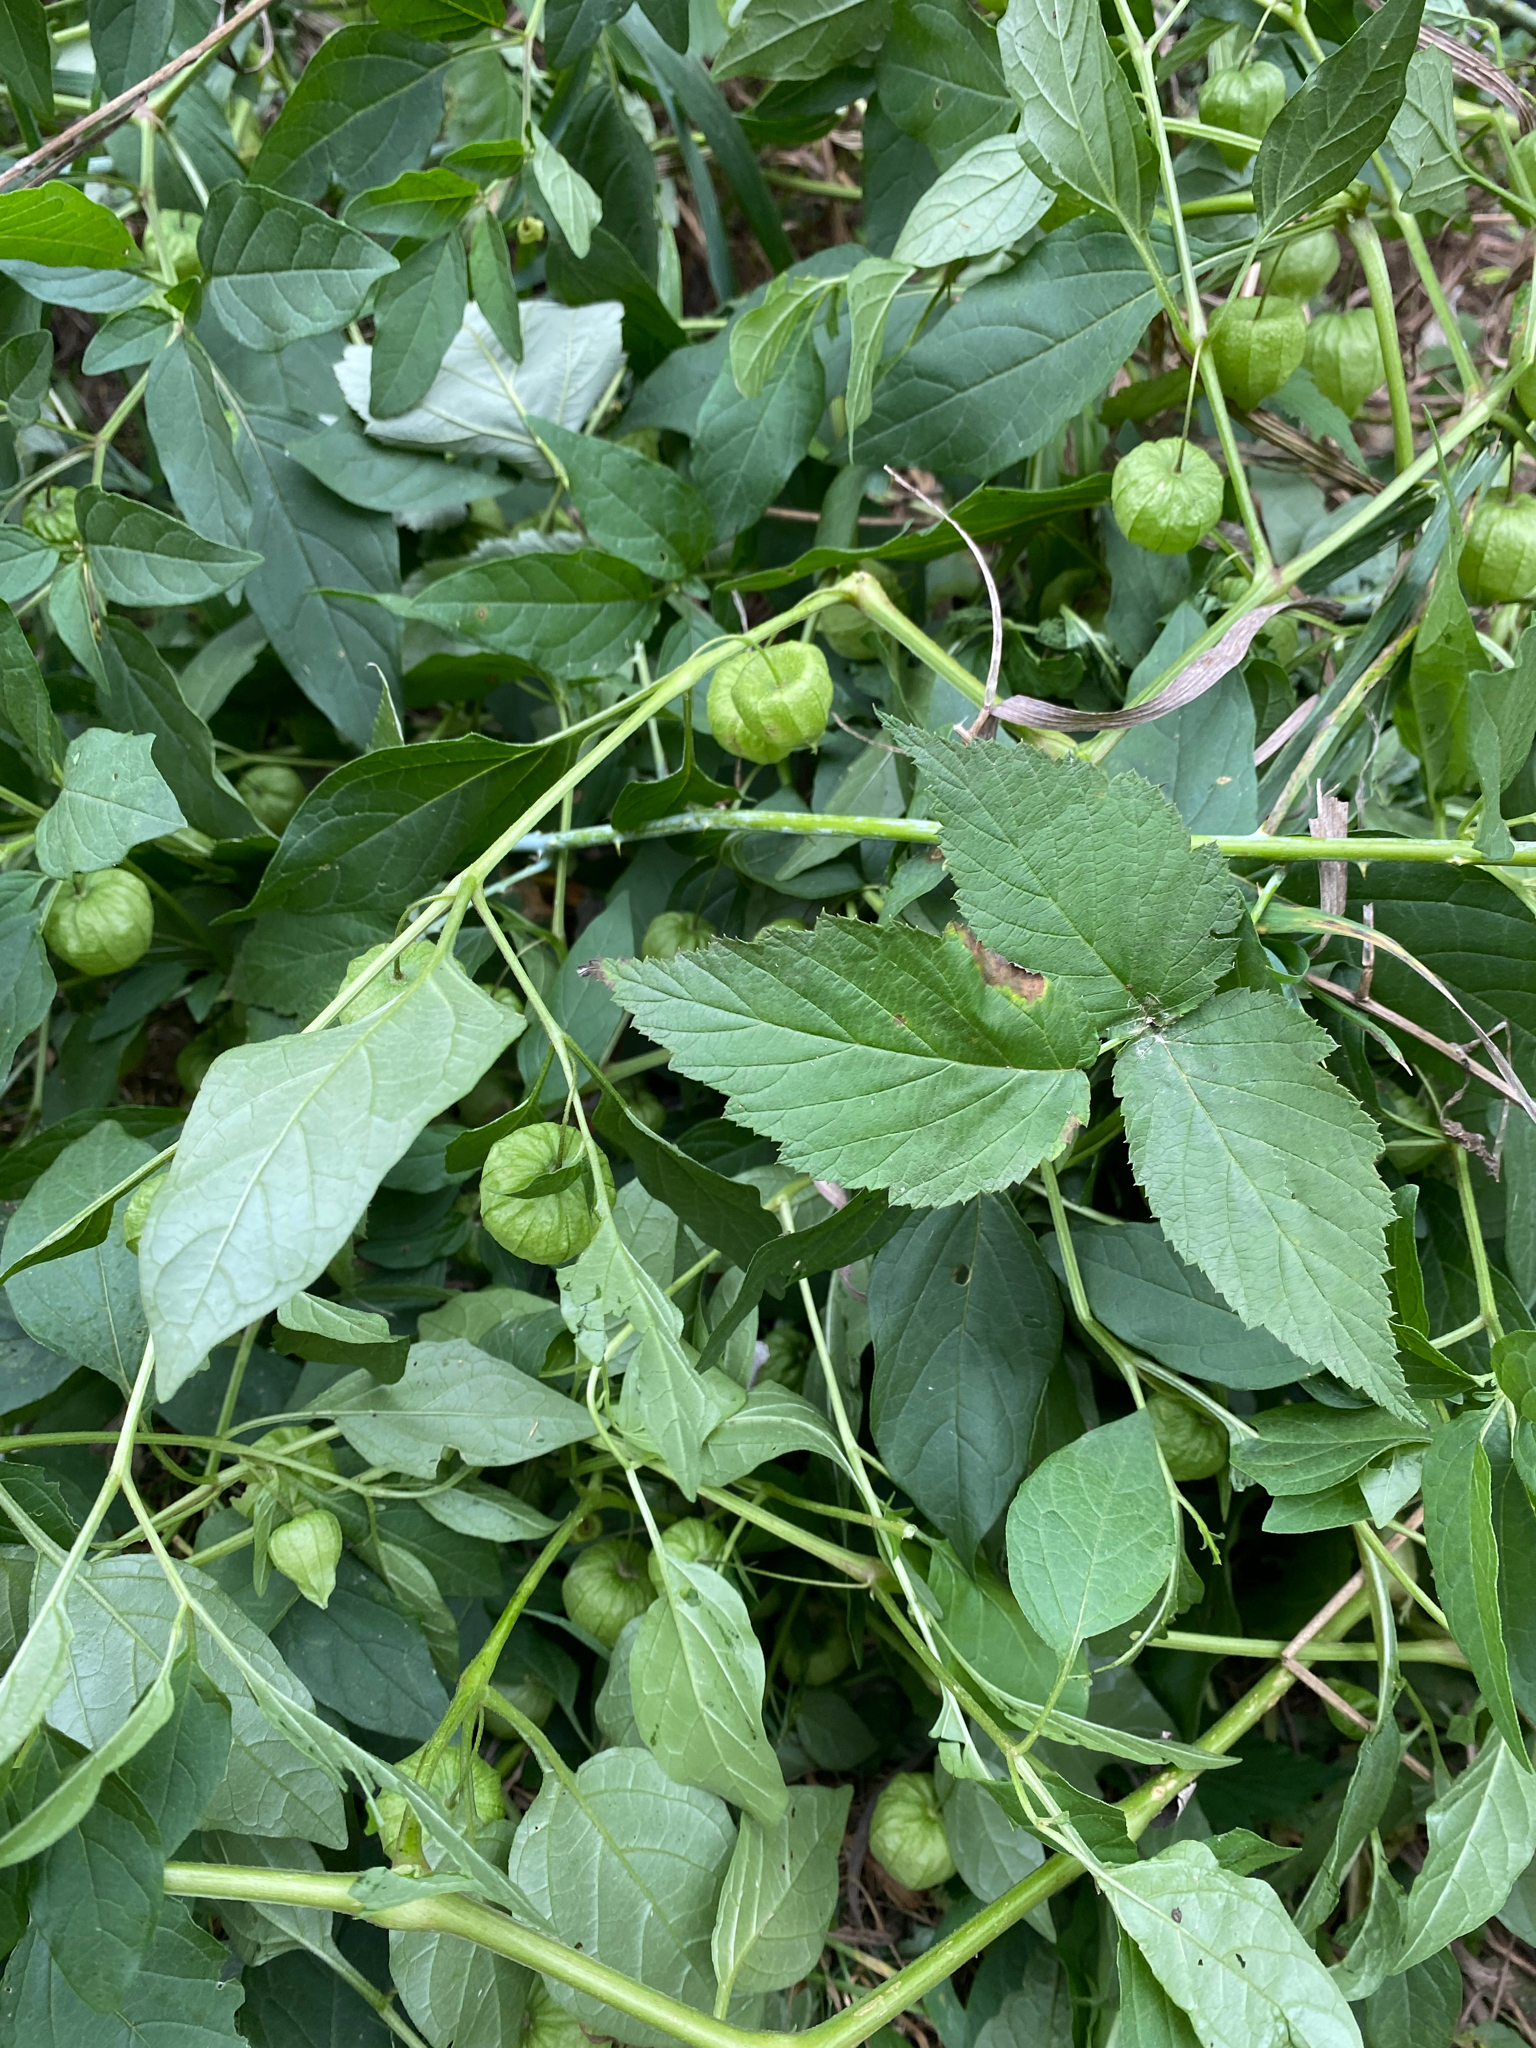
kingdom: Plantae
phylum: Tracheophyta
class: Magnoliopsida
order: Solanales
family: Solanaceae
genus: Physalis
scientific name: Physalis longifolia
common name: Common ground-cherry
